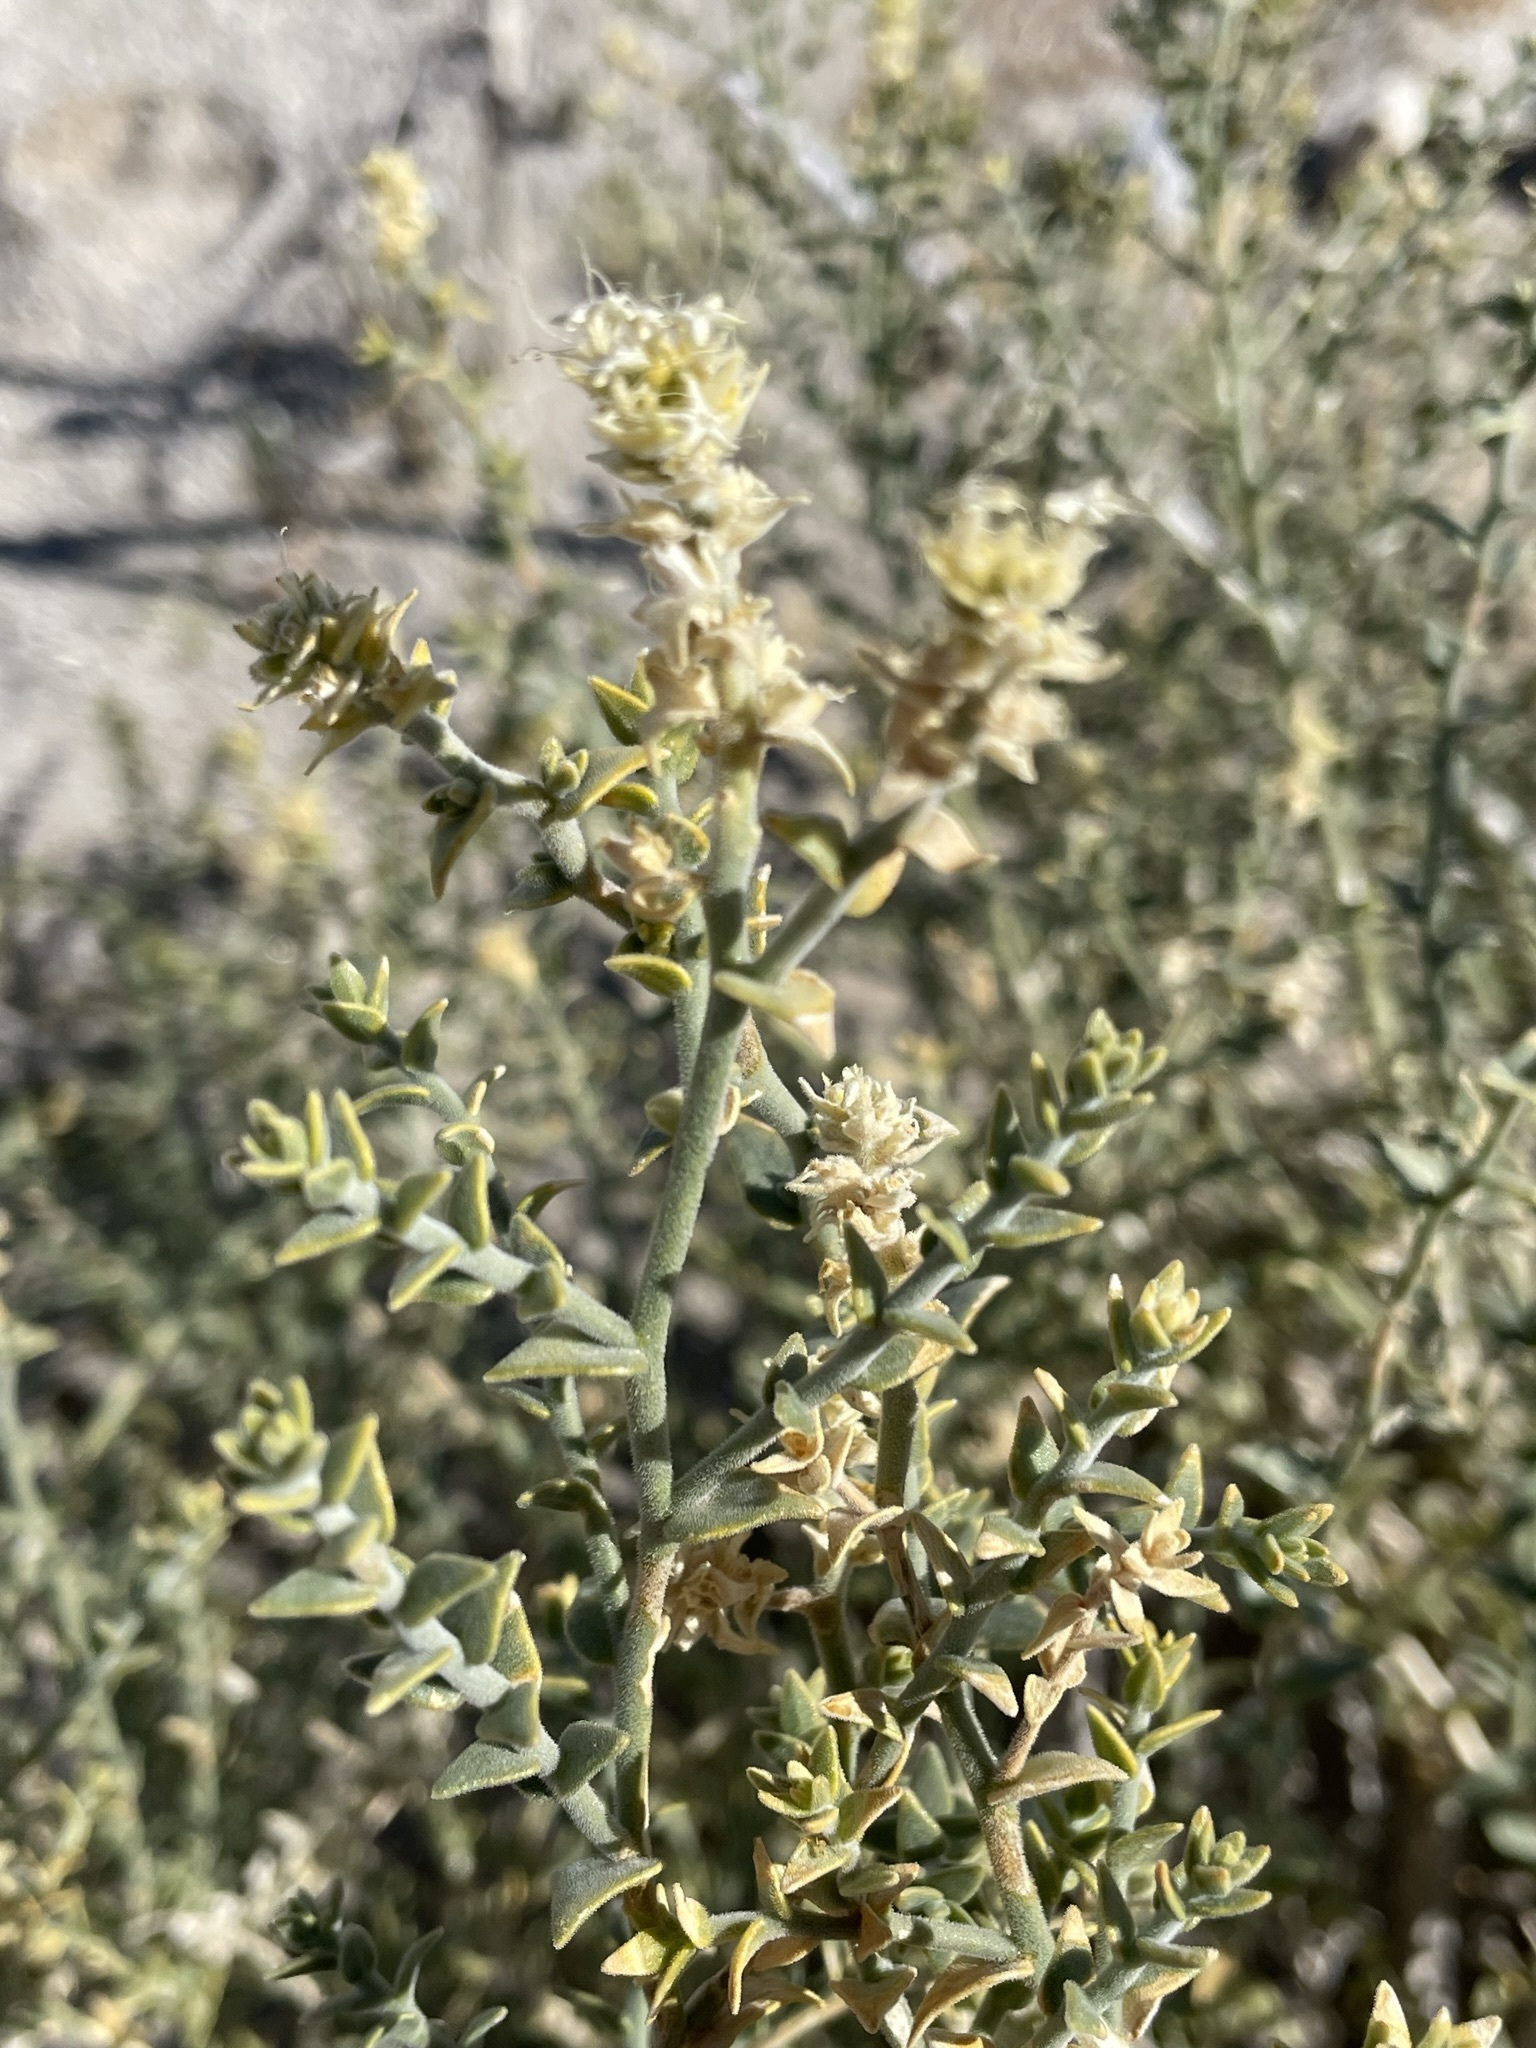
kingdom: Plantae
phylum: Tracheophyta
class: Magnoliopsida
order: Cornales
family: Loasaceae
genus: Petalonyx
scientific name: Petalonyx thurberi
